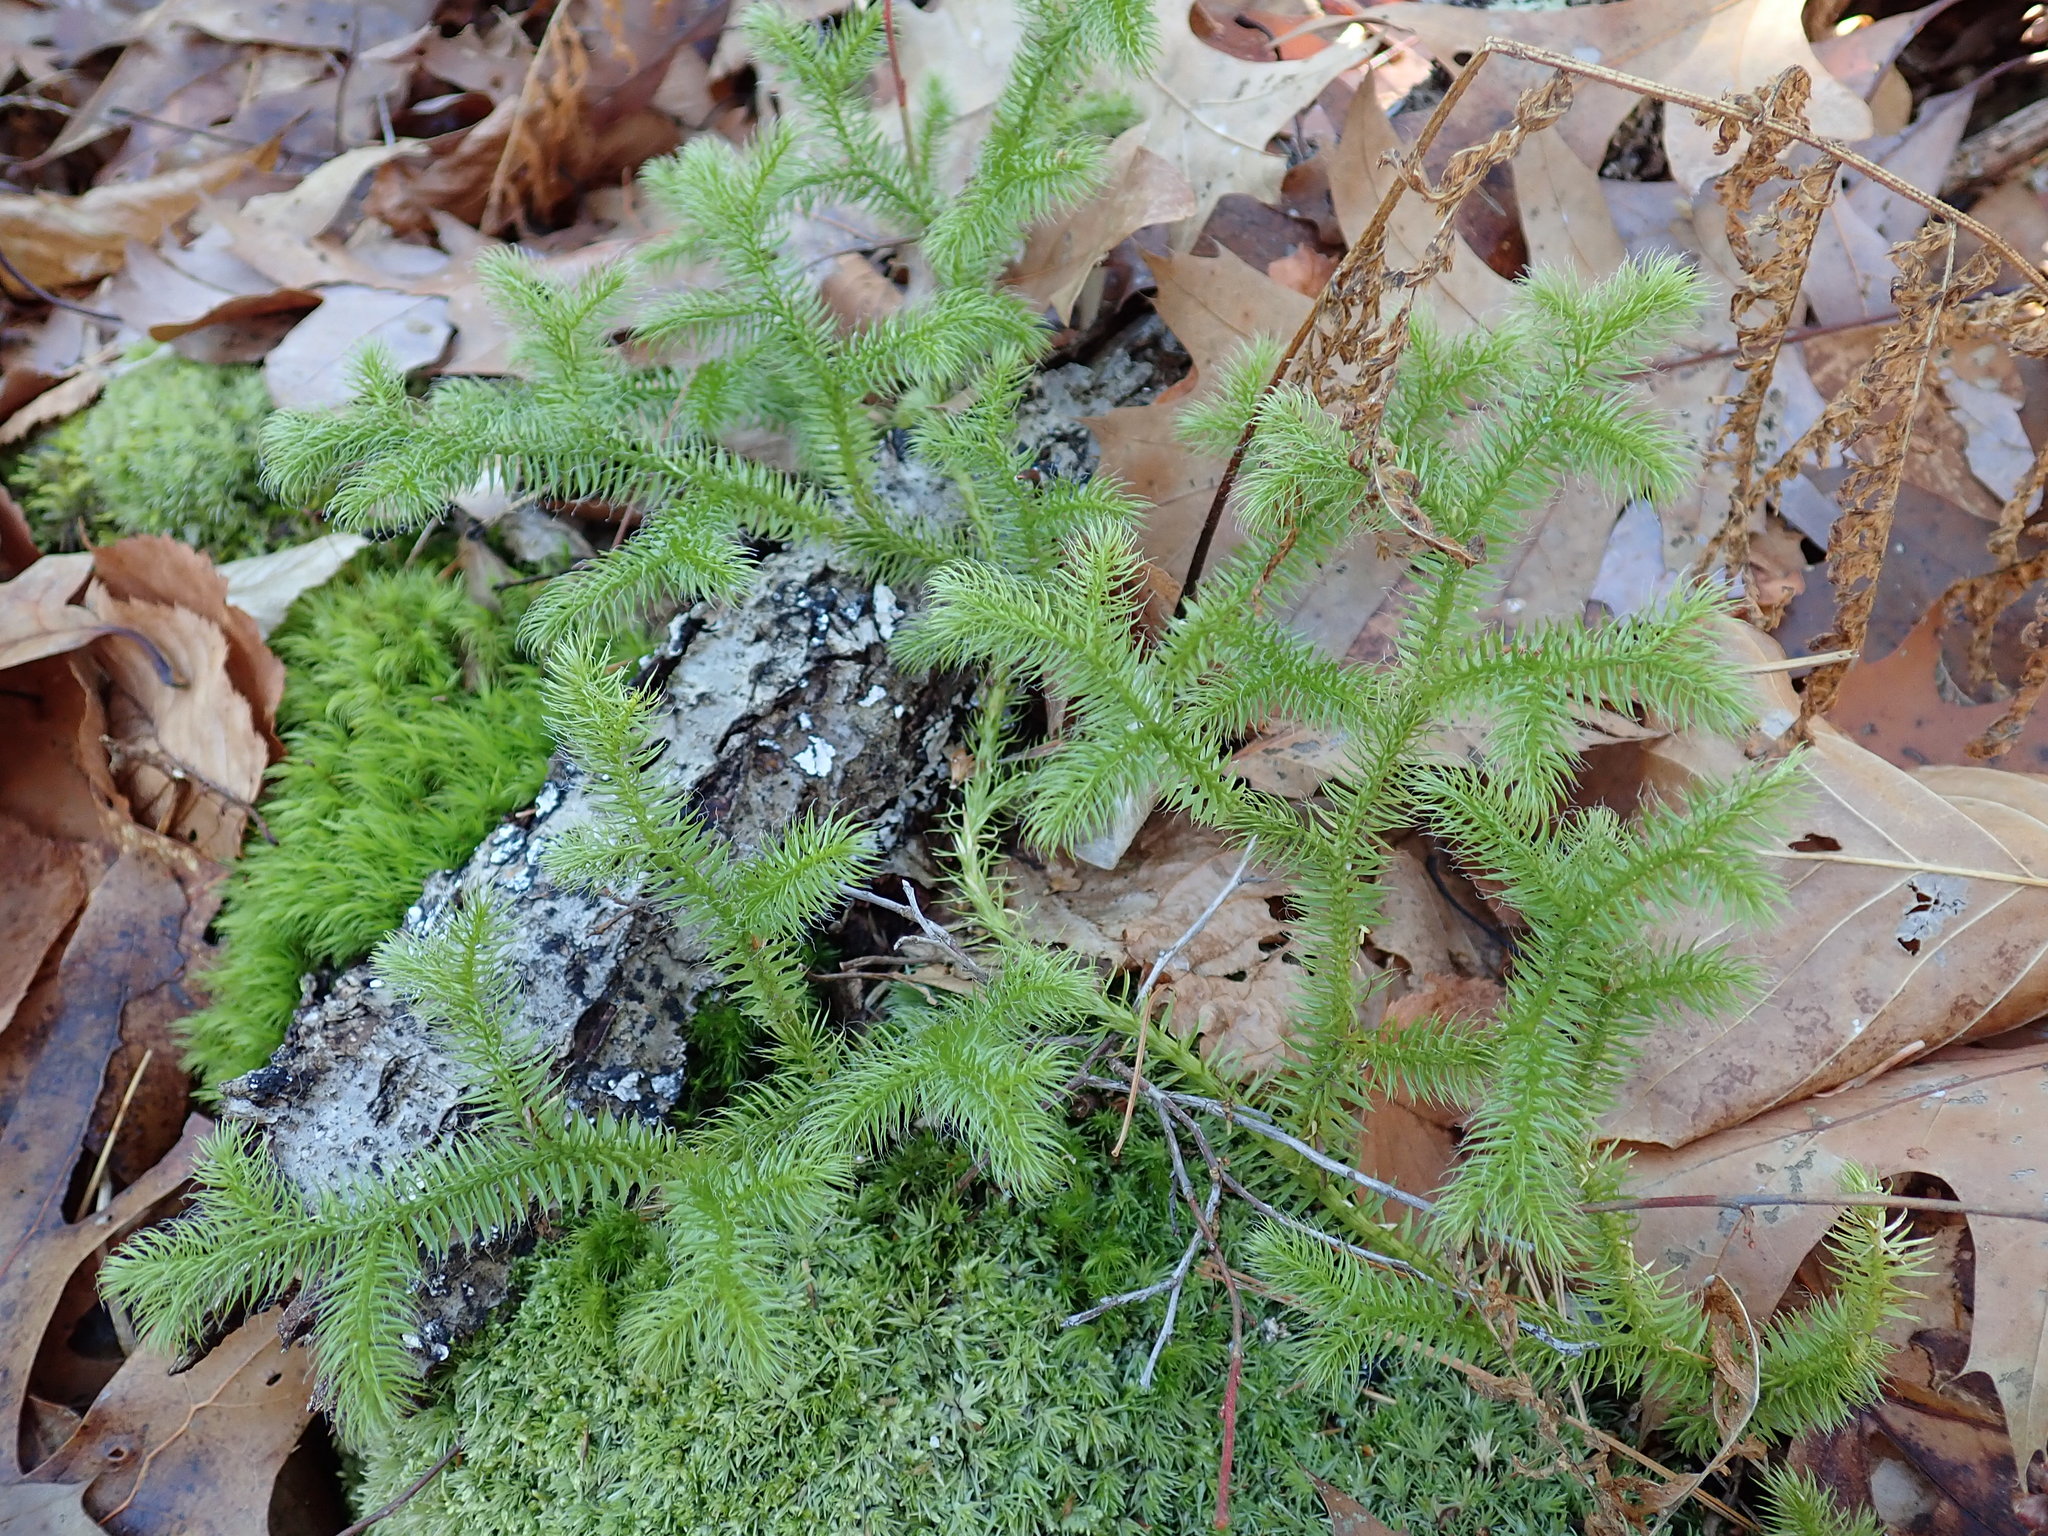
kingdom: Plantae
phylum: Tracheophyta
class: Lycopodiopsida
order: Lycopodiales
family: Lycopodiaceae
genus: Lycopodium
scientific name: Lycopodium clavatum
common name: Stag's-horn clubmoss
